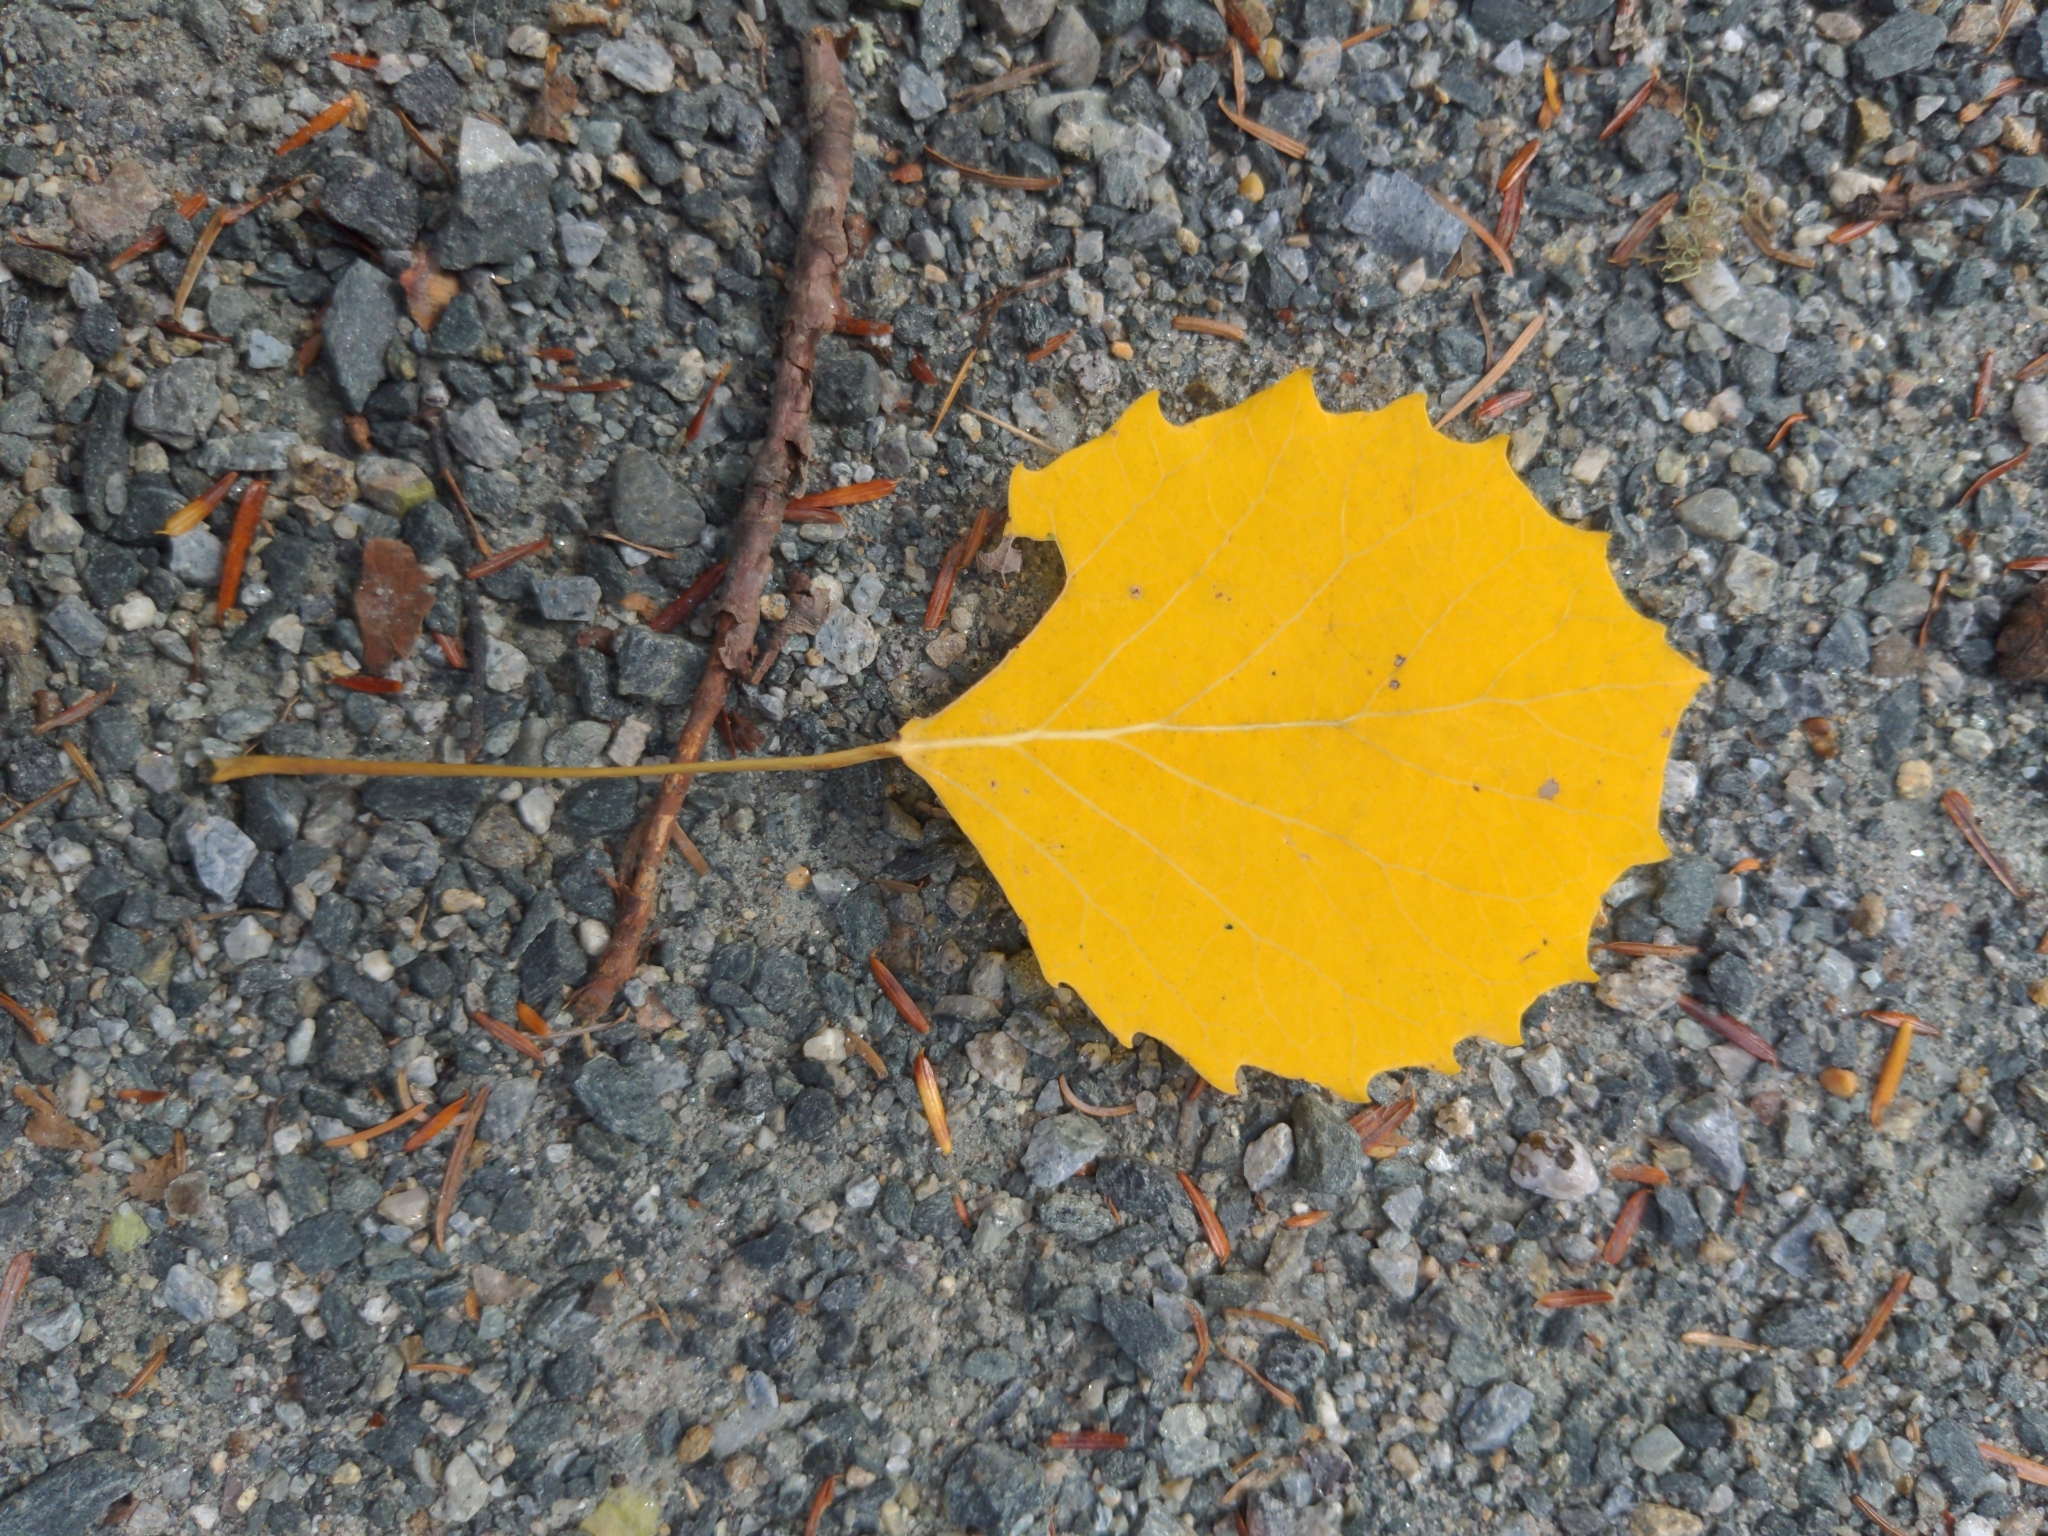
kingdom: Plantae
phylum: Tracheophyta
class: Magnoliopsida
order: Malpighiales
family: Salicaceae
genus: Populus
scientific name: Populus grandidentata
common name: Bigtooth aspen
